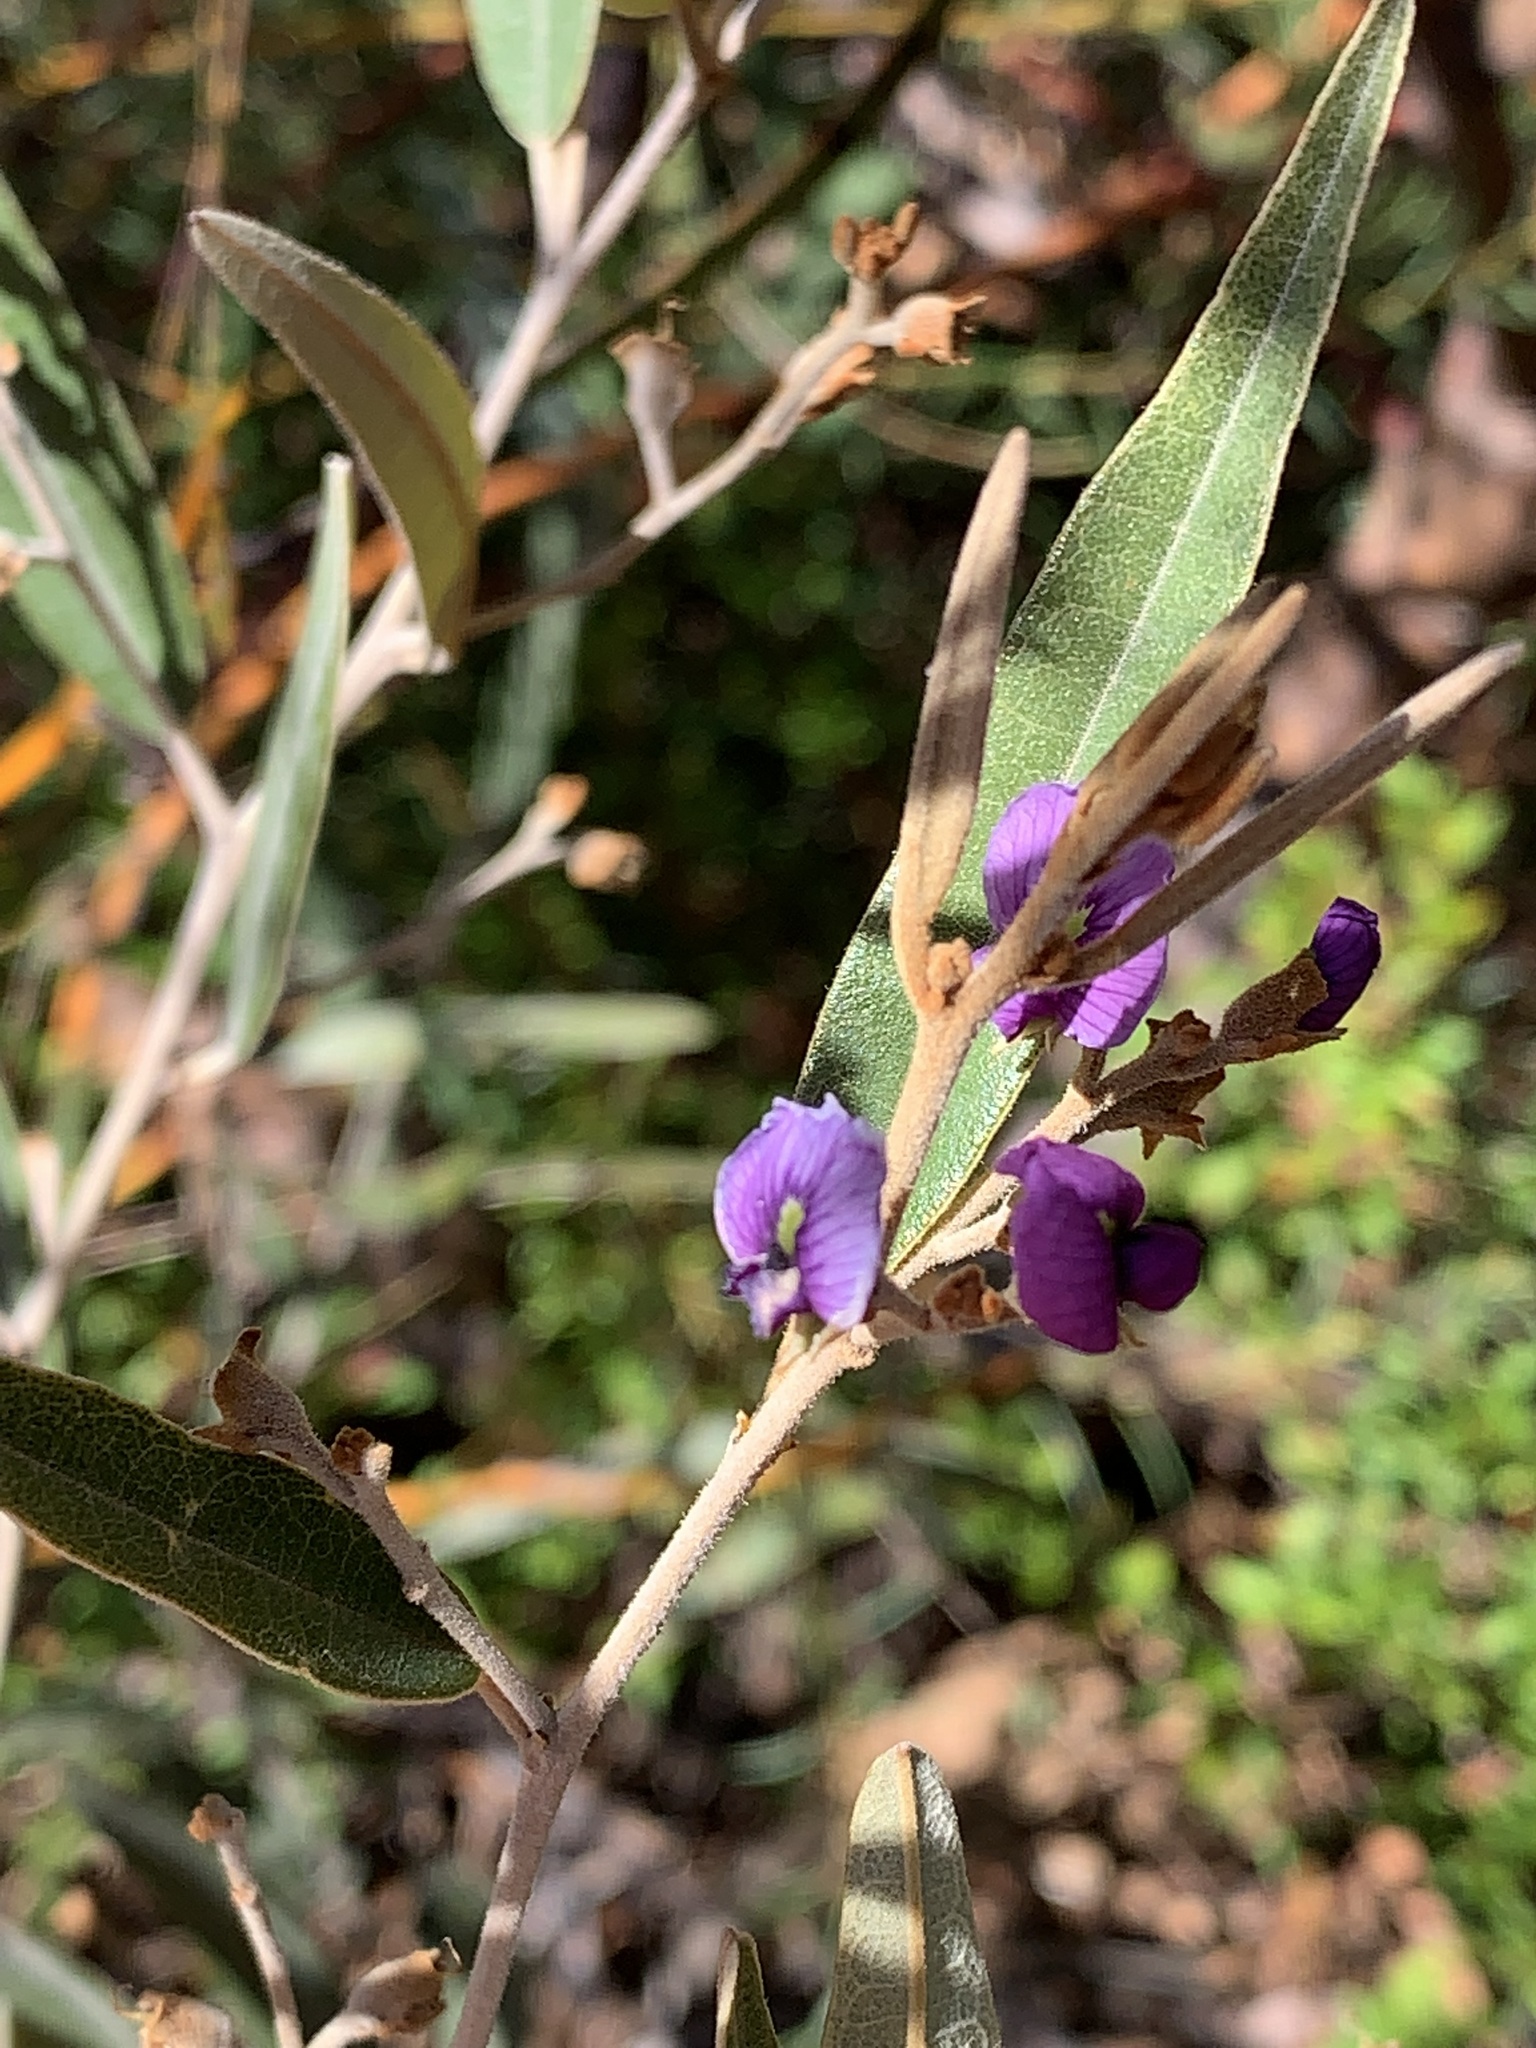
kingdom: Plantae
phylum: Tracheophyta
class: Magnoliopsida
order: Fabales
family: Fabaceae
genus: Hovea
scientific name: Hovea apiculata
